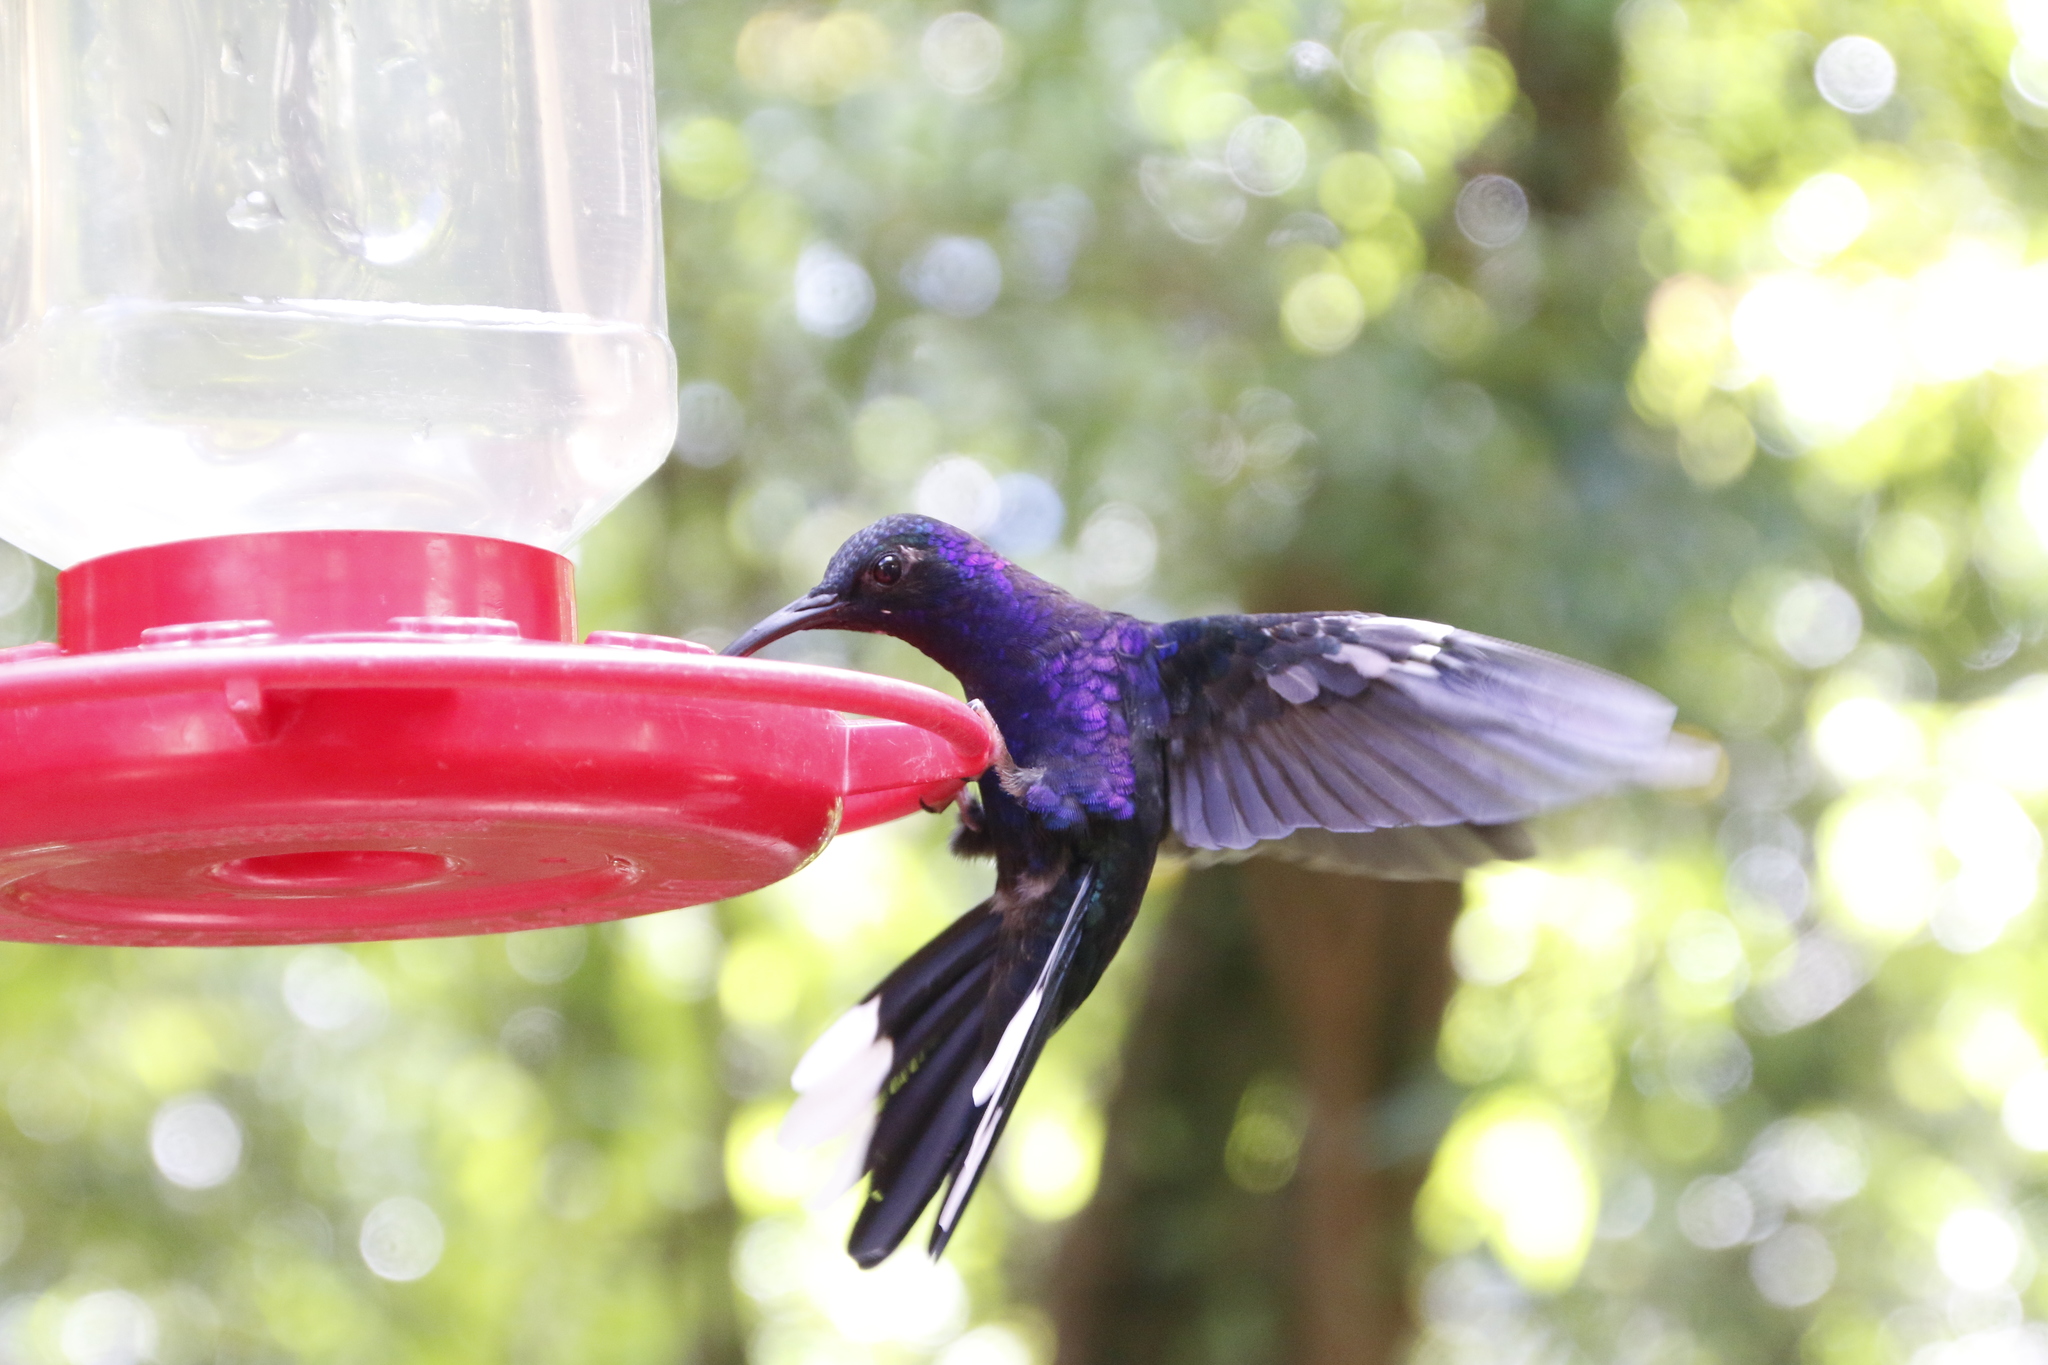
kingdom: Animalia
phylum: Chordata
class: Aves
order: Apodiformes
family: Trochilidae
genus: Campylopterus
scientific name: Campylopterus hemileucurus
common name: Violet sabrewing
